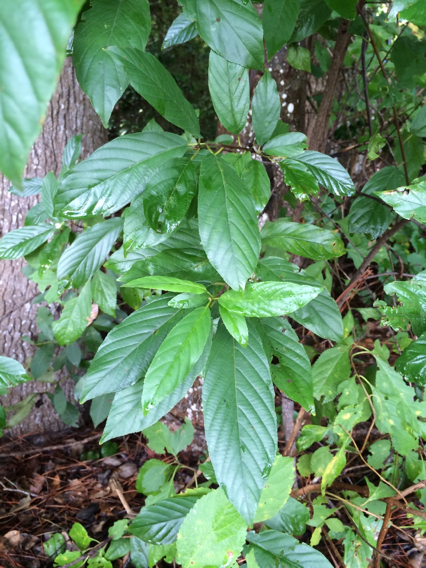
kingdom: Plantae
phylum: Tracheophyta
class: Magnoliopsida
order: Rosales
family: Rhamnaceae
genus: Frangula
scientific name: Frangula caroliniana
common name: Carolina buckthorn
